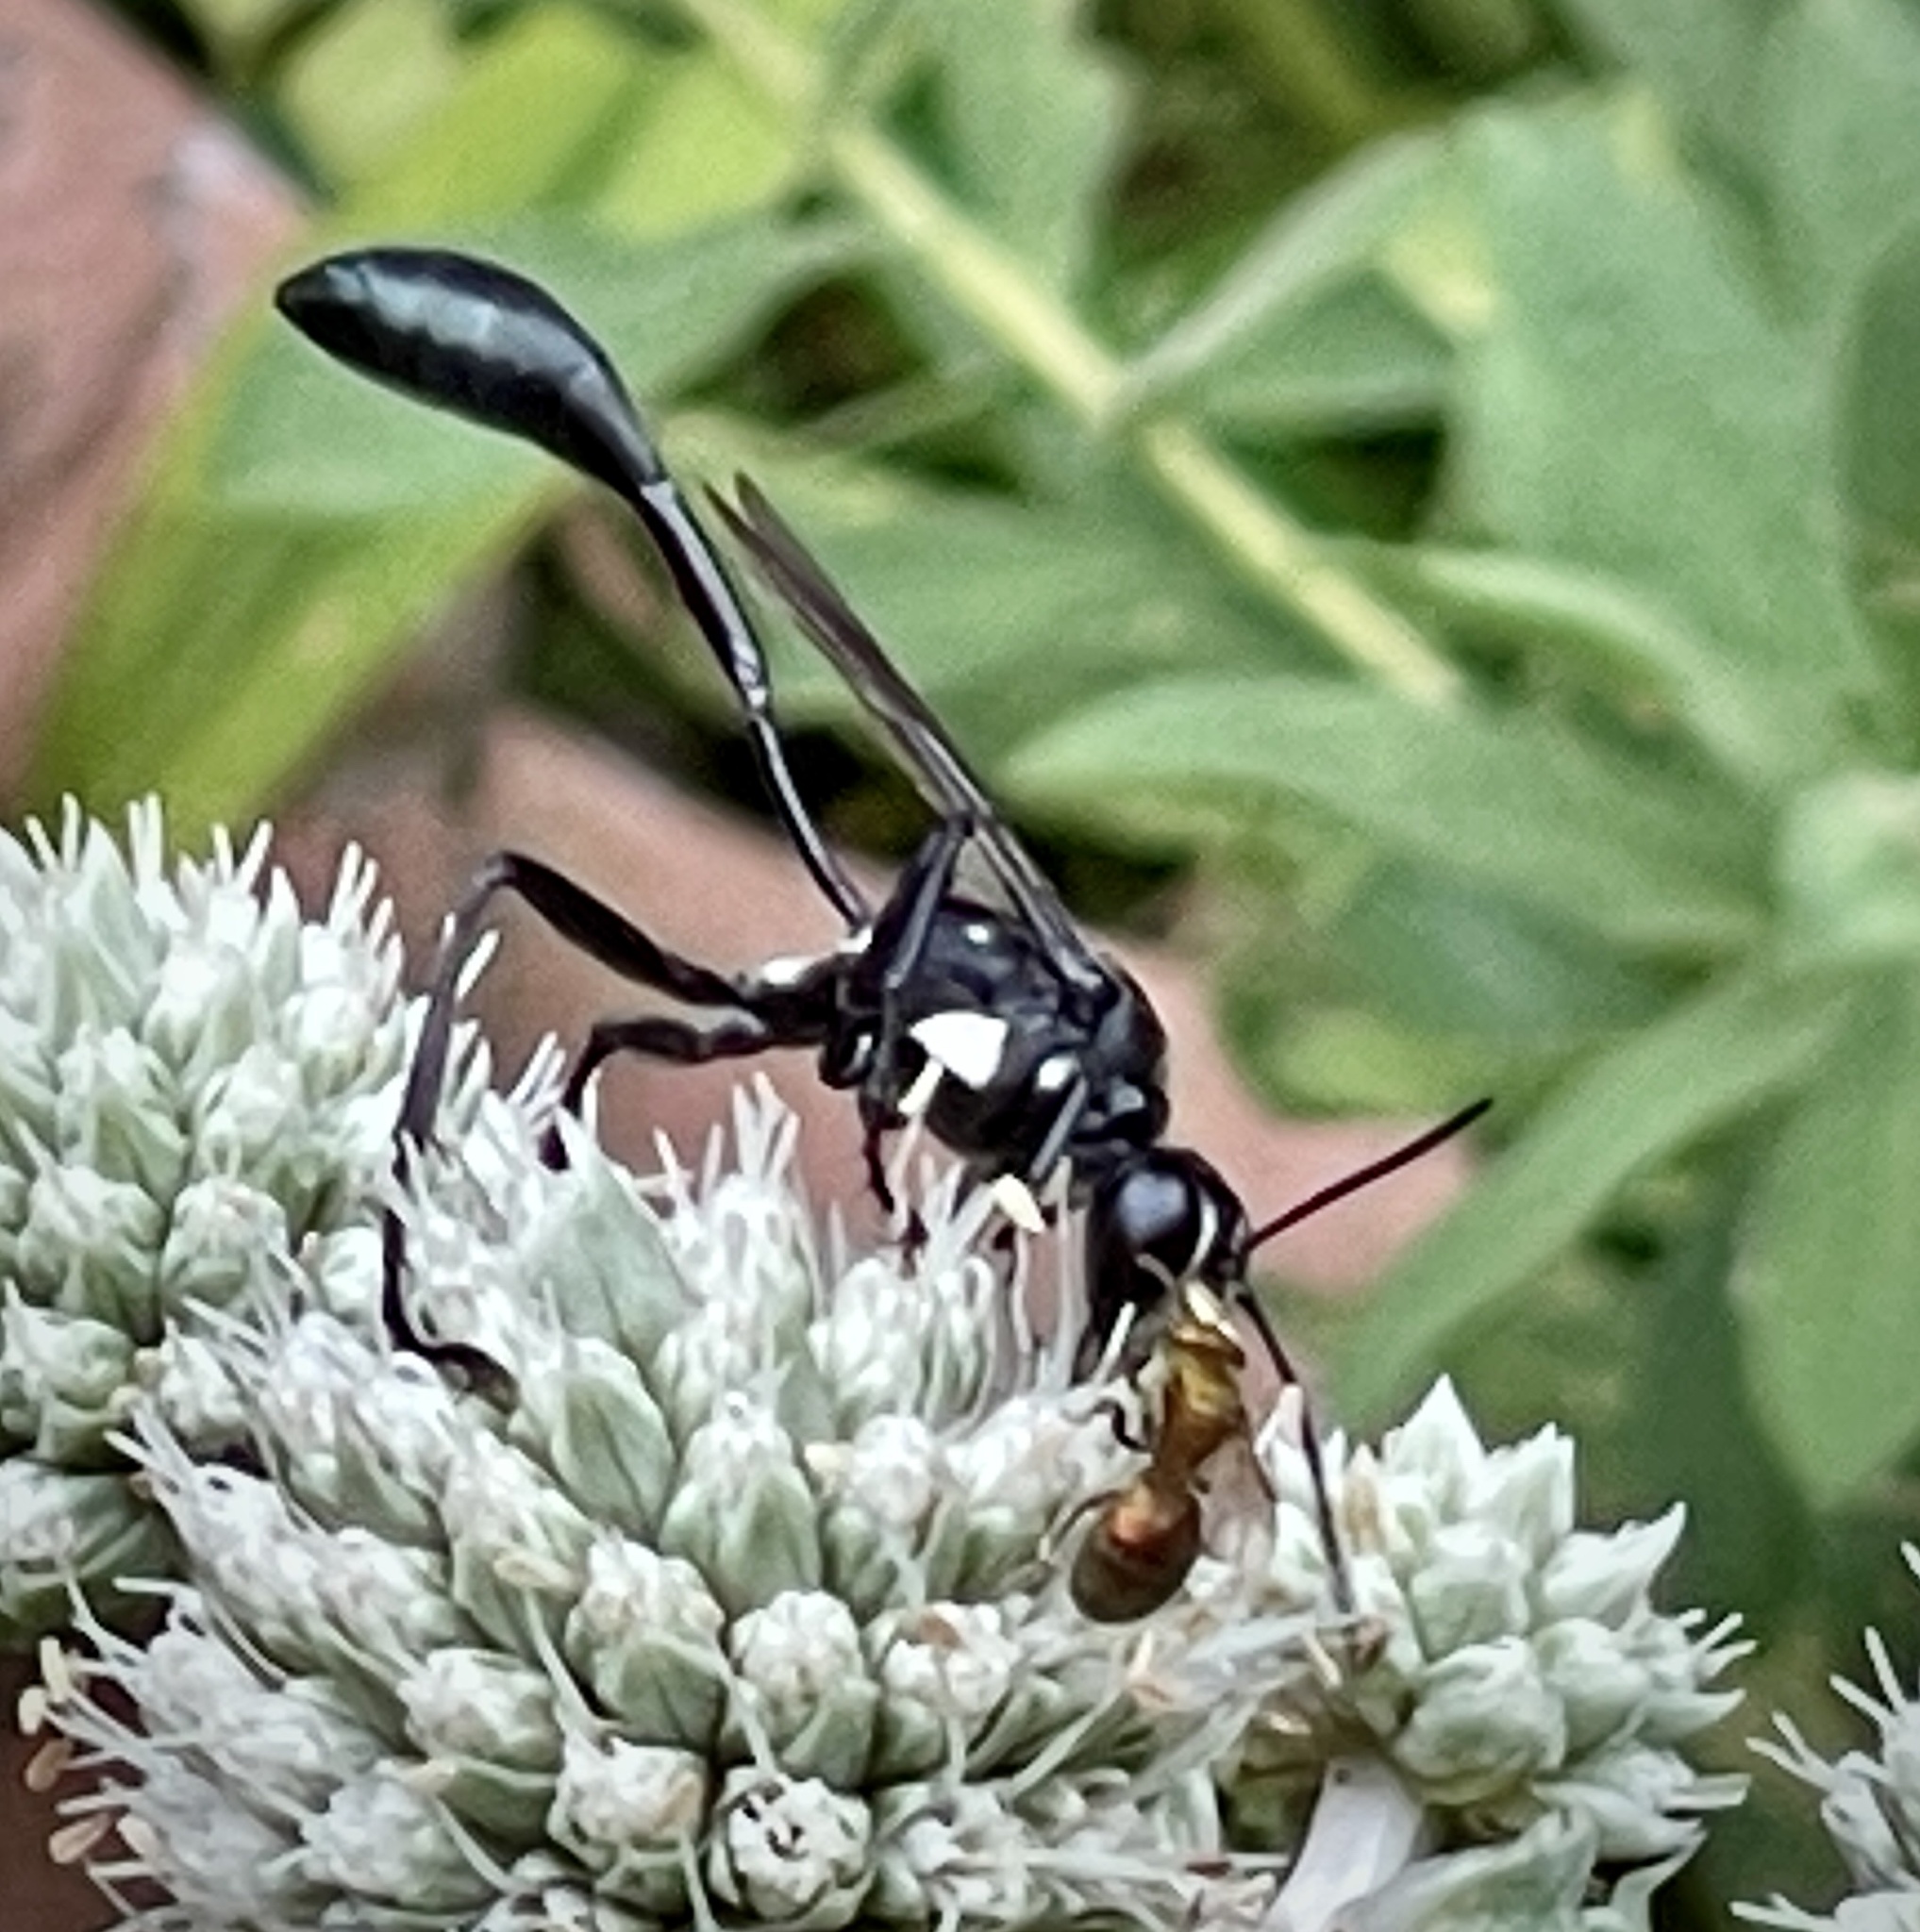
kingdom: Animalia
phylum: Arthropoda
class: Insecta
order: Hymenoptera
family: Sphecidae
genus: Eremnophila
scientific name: Eremnophila aureonotata
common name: Gold-marked thread-waisted wasp
